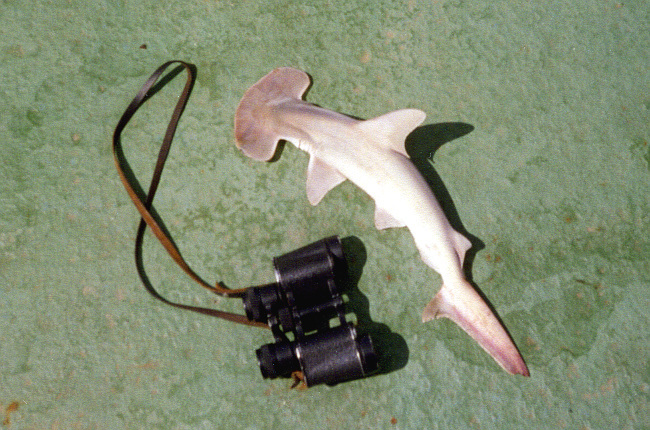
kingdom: Animalia
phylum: Chordata
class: Elasmobranchii
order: Carcharhiniformes
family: Sphyrnidae
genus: Sphyrna
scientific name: Sphyrna media
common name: Scoophead shark
